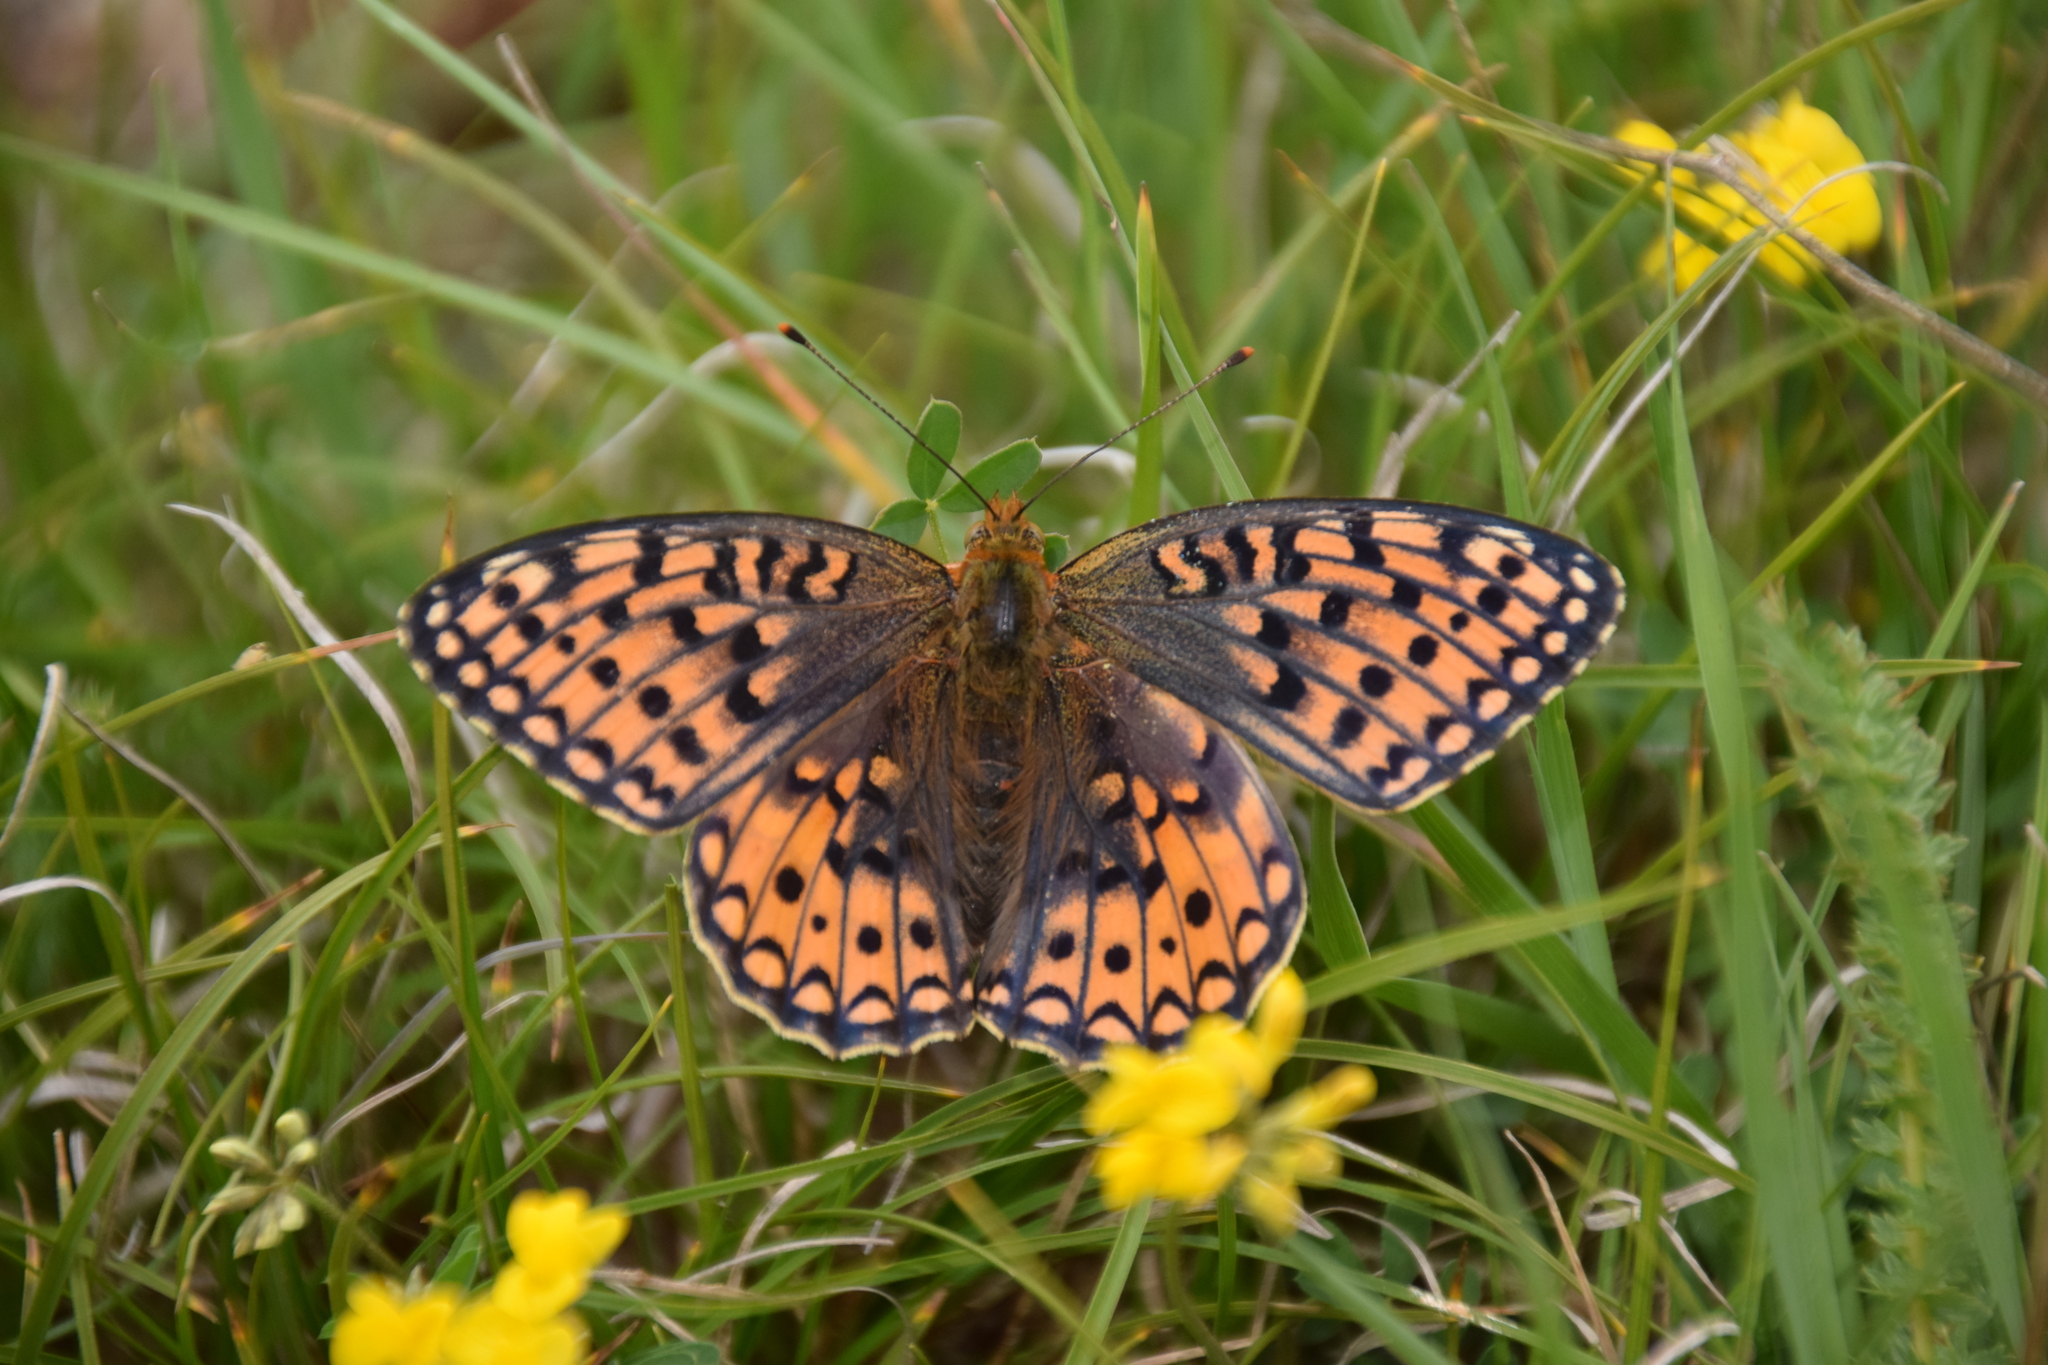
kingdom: Animalia
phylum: Arthropoda
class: Insecta
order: Lepidoptera
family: Nymphalidae
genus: Fabriciana
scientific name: Fabriciana niobe
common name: Niobe fritillary
